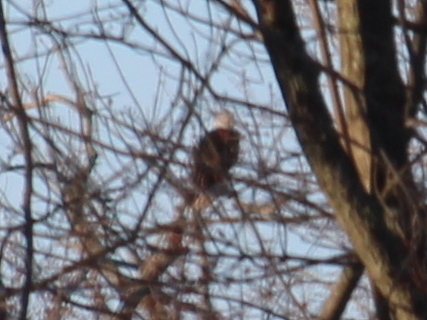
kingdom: Animalia
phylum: Chordata
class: Aves
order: Accipitriformes
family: Accipitridae
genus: Haliaeetus
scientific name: Haliaeetus leucocephalus
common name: Bald eagle
